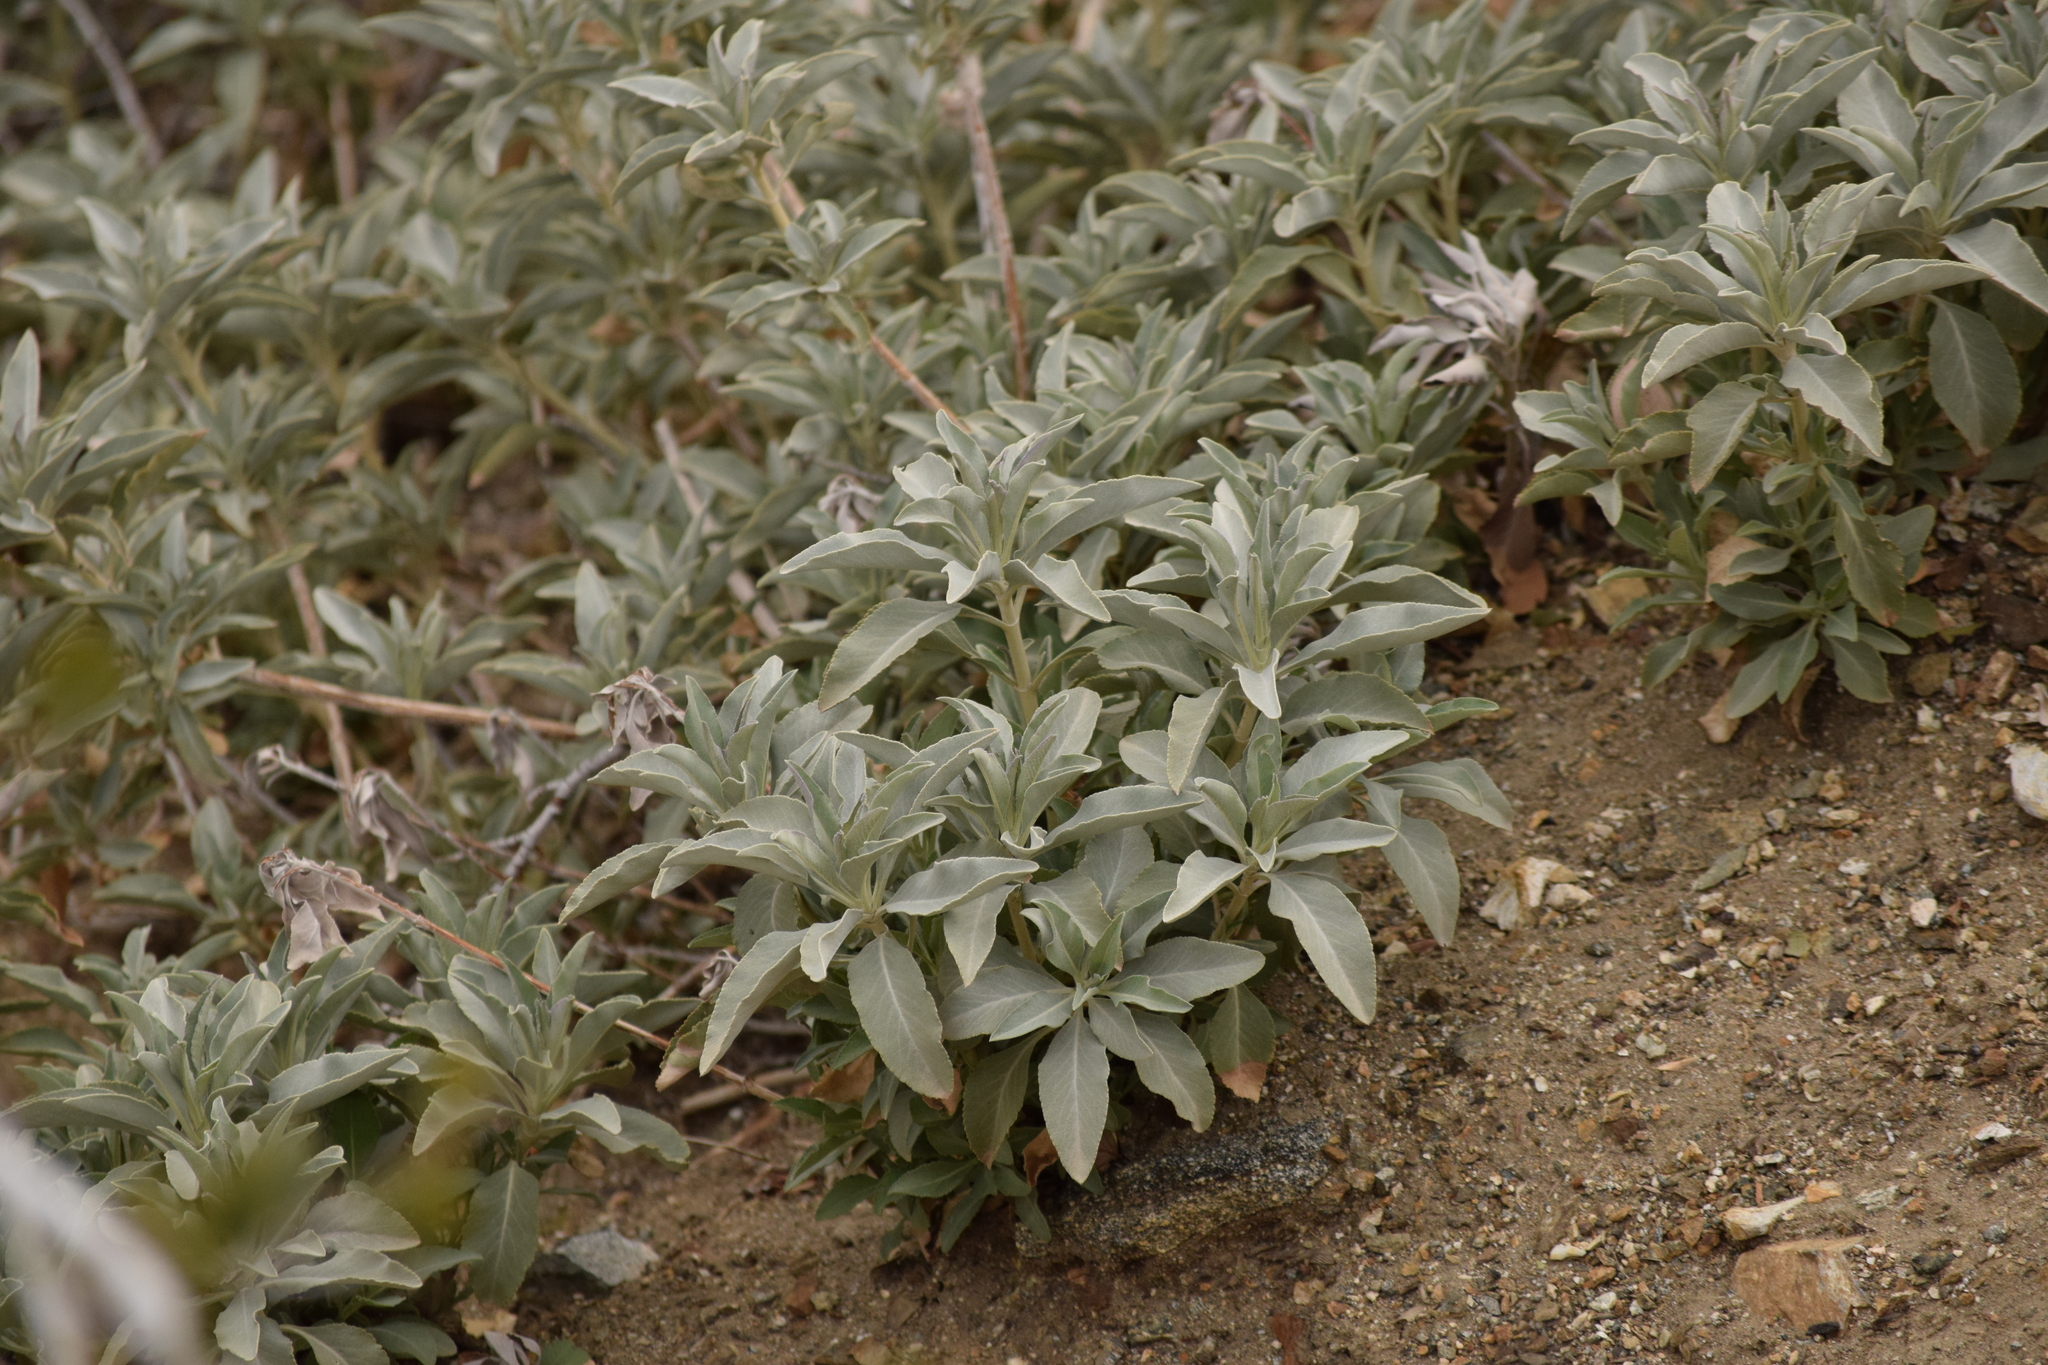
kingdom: Plantae
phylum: Tracheophyta
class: Magnoliopsida
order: Lamiales
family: Lamiaceae
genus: Salvia
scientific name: Salvia apiana
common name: White sage
